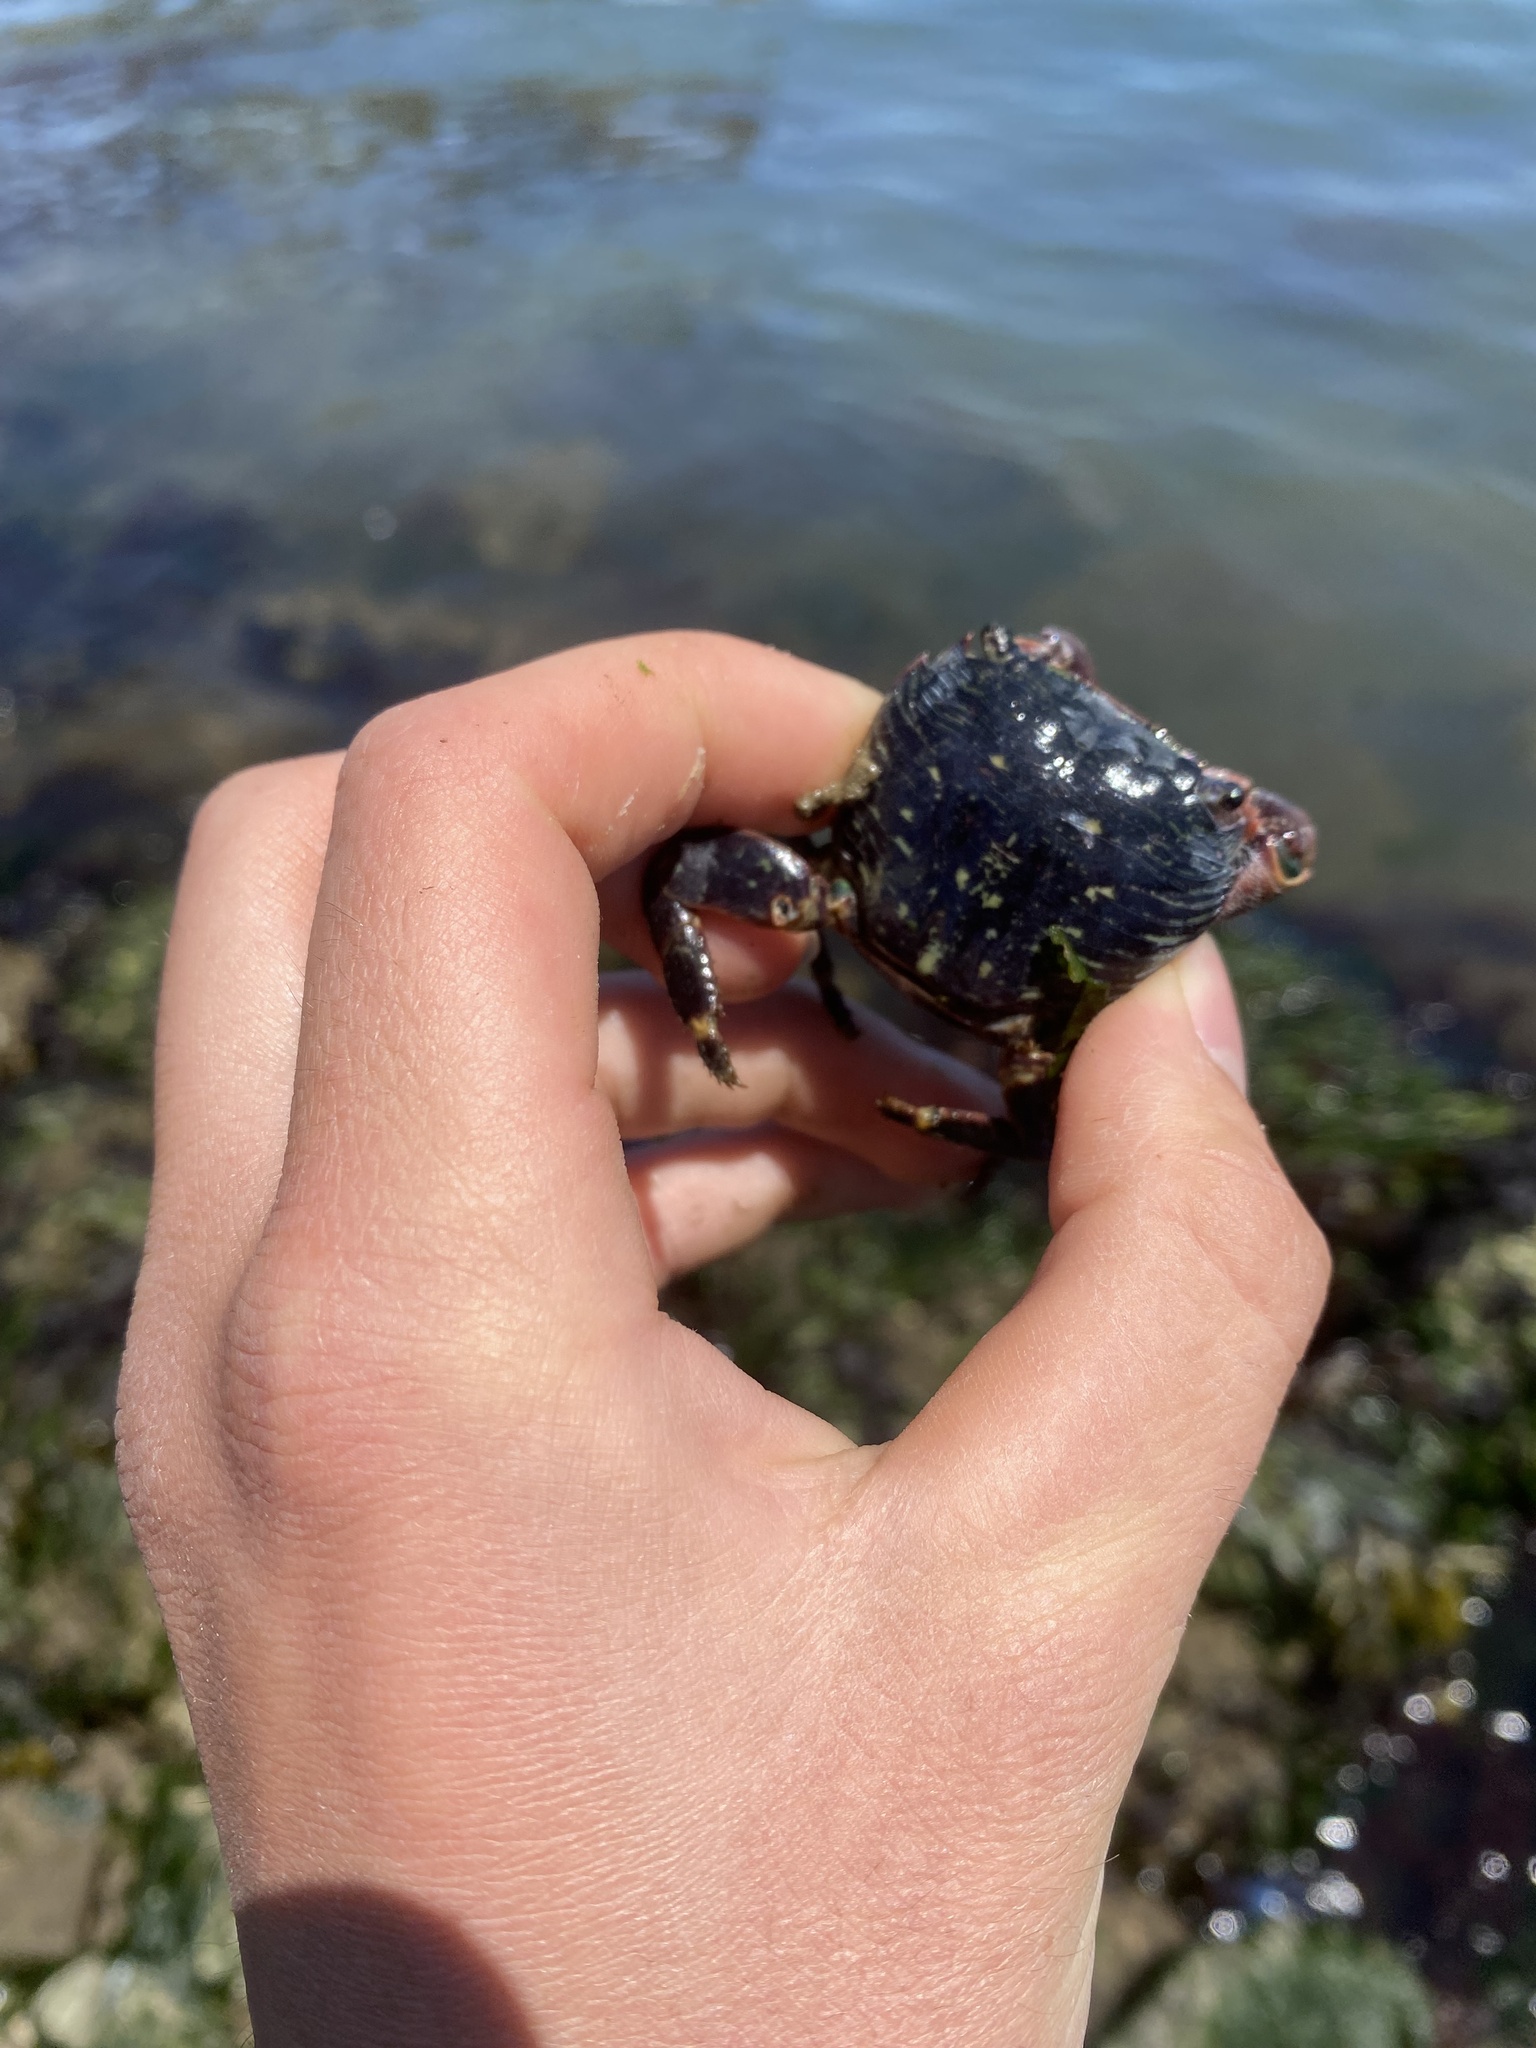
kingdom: Animalia
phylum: Arthropoda
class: Malacostraca
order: Decapoda
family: Grapsidae
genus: Pachygrapsus
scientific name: Pachygrapsus crassipes
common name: Striped shore crab
